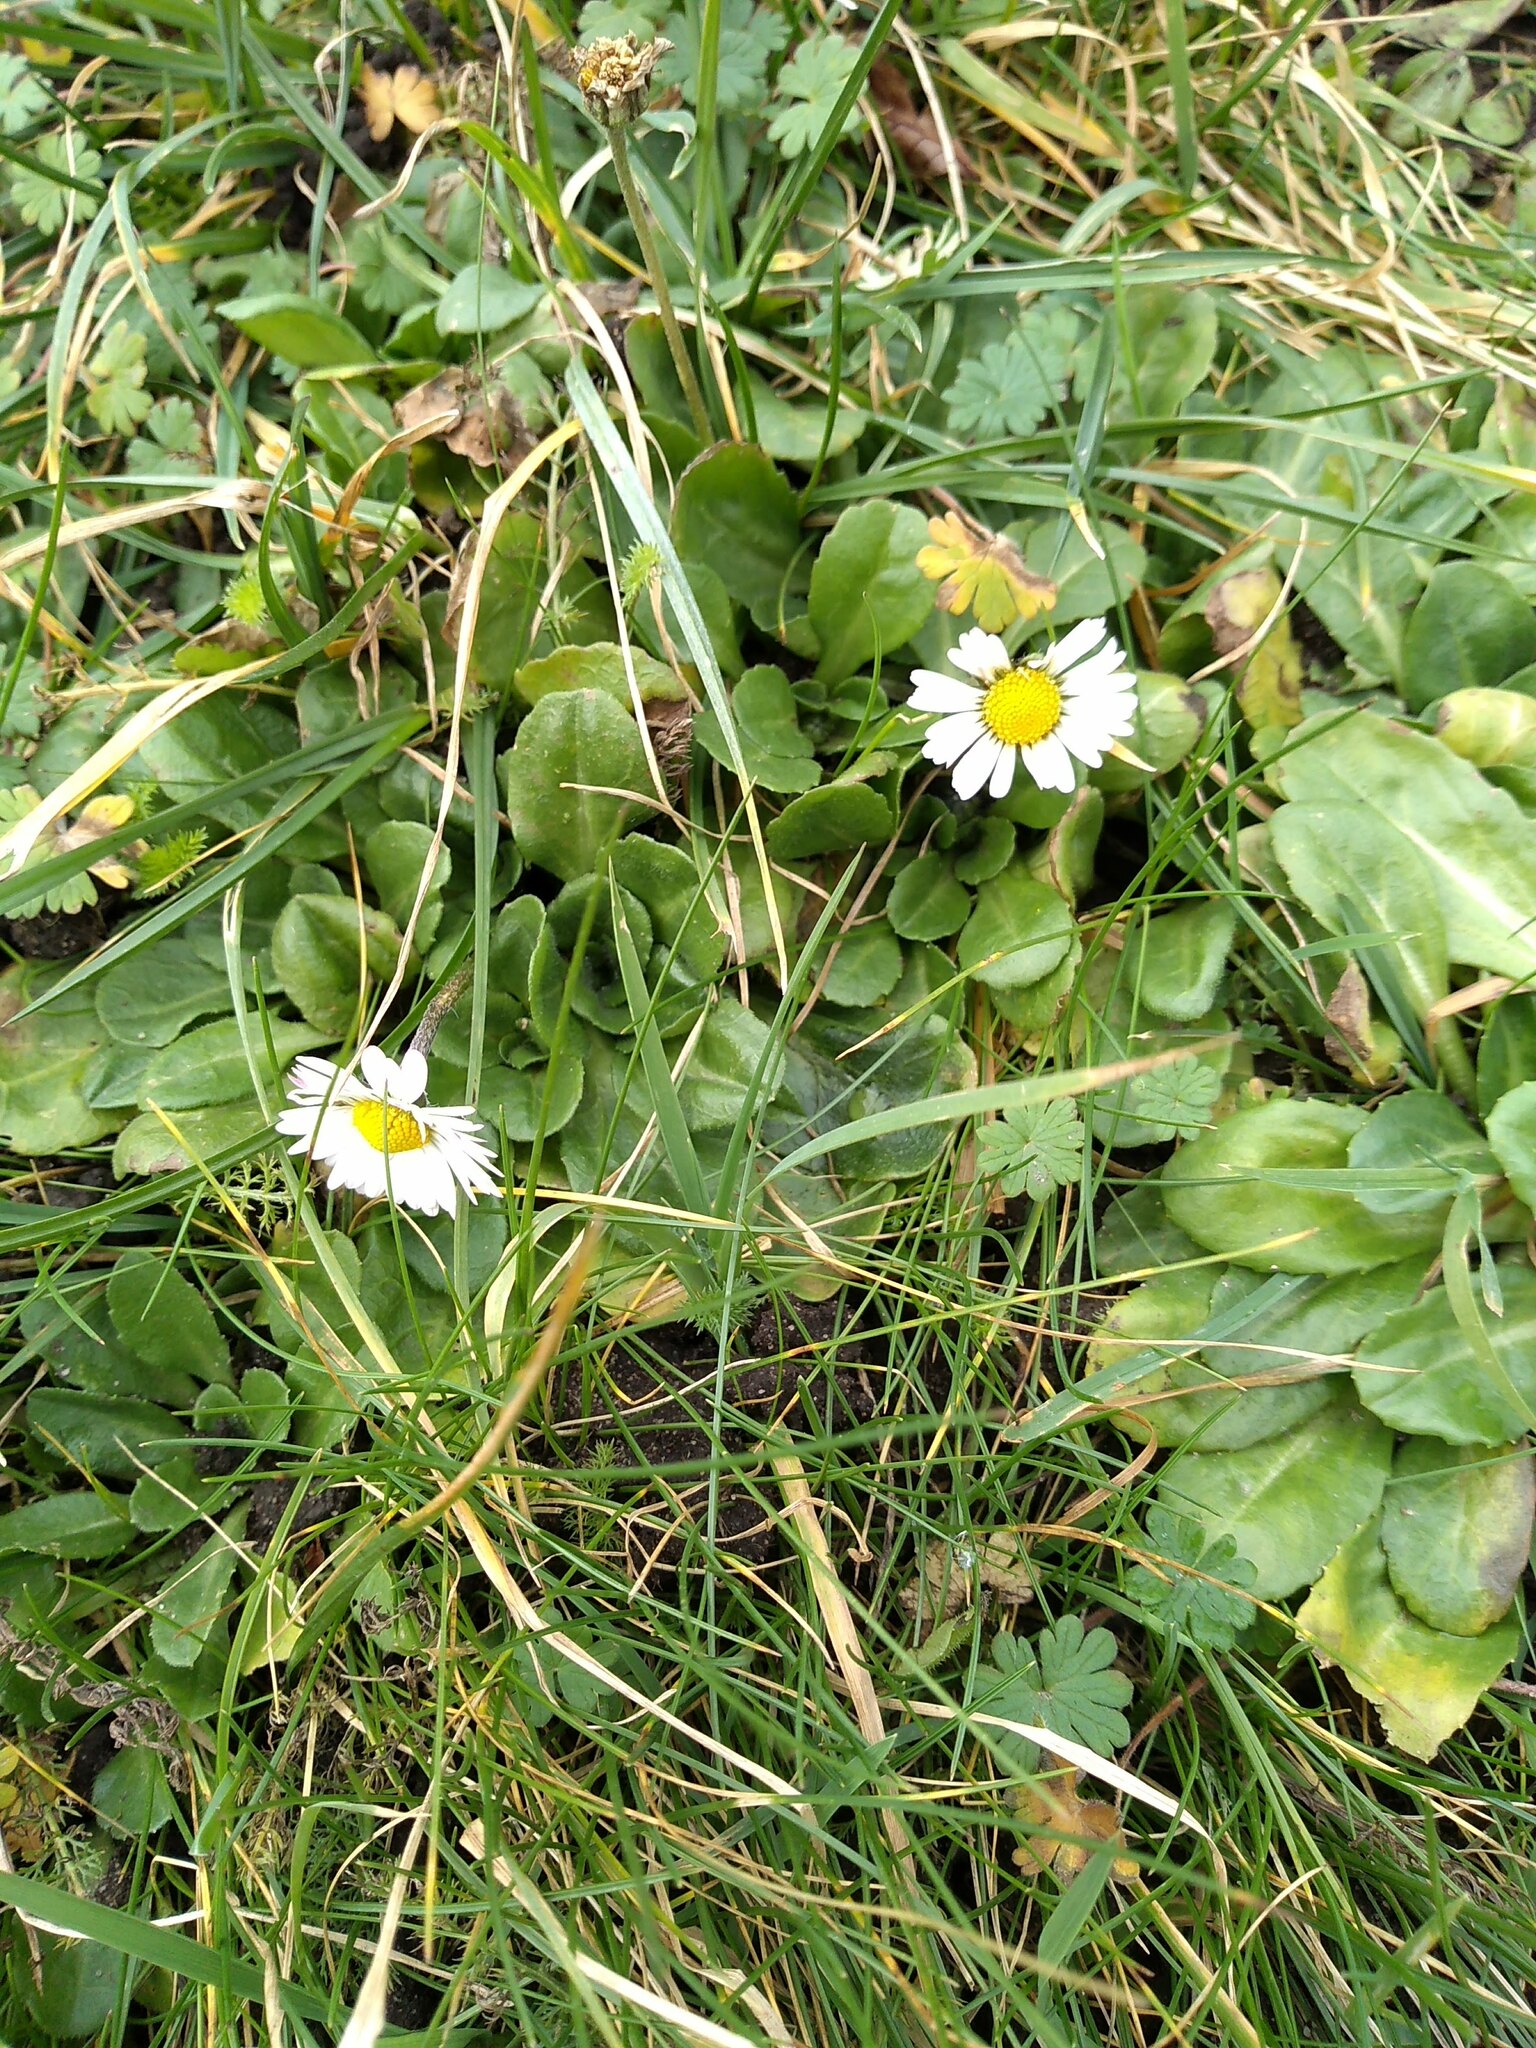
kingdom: Plantae
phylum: Tracheophyta
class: Magnoliopsida
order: Asterales
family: Asteraceae
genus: Bellis
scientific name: Bellis perennis
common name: Lawndaisy
